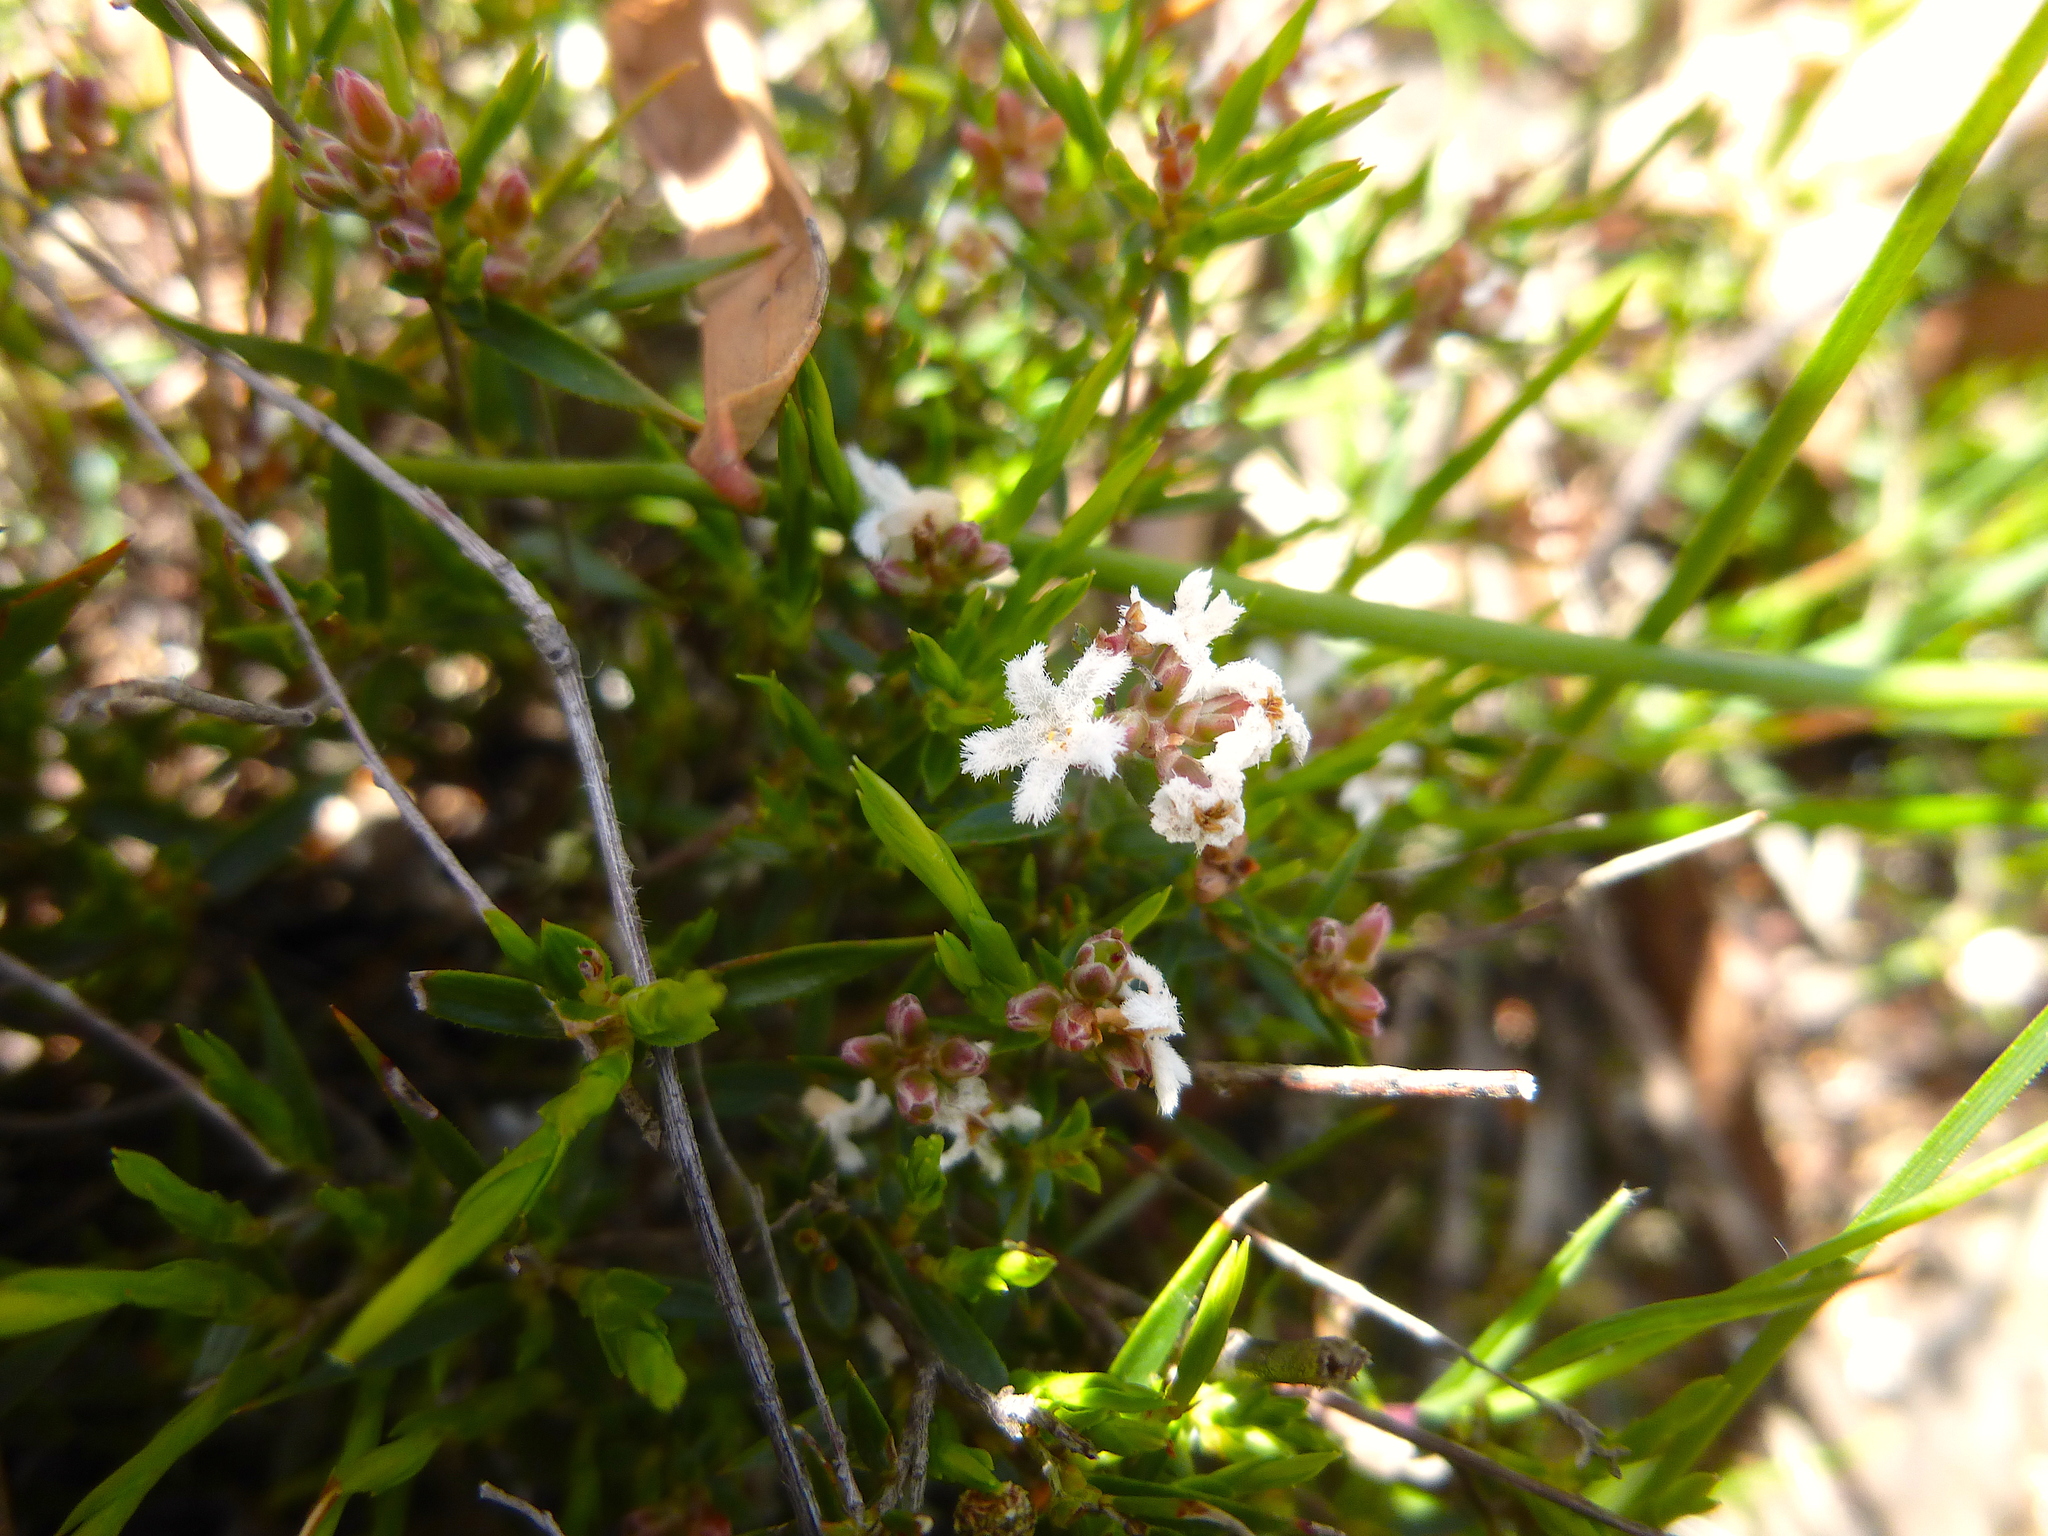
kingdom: Plantae
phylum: Tracheophyta
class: Magnoliopsida
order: Ericales
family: Ericaceae
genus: Leucopogon
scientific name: Leucopogon virgatus
